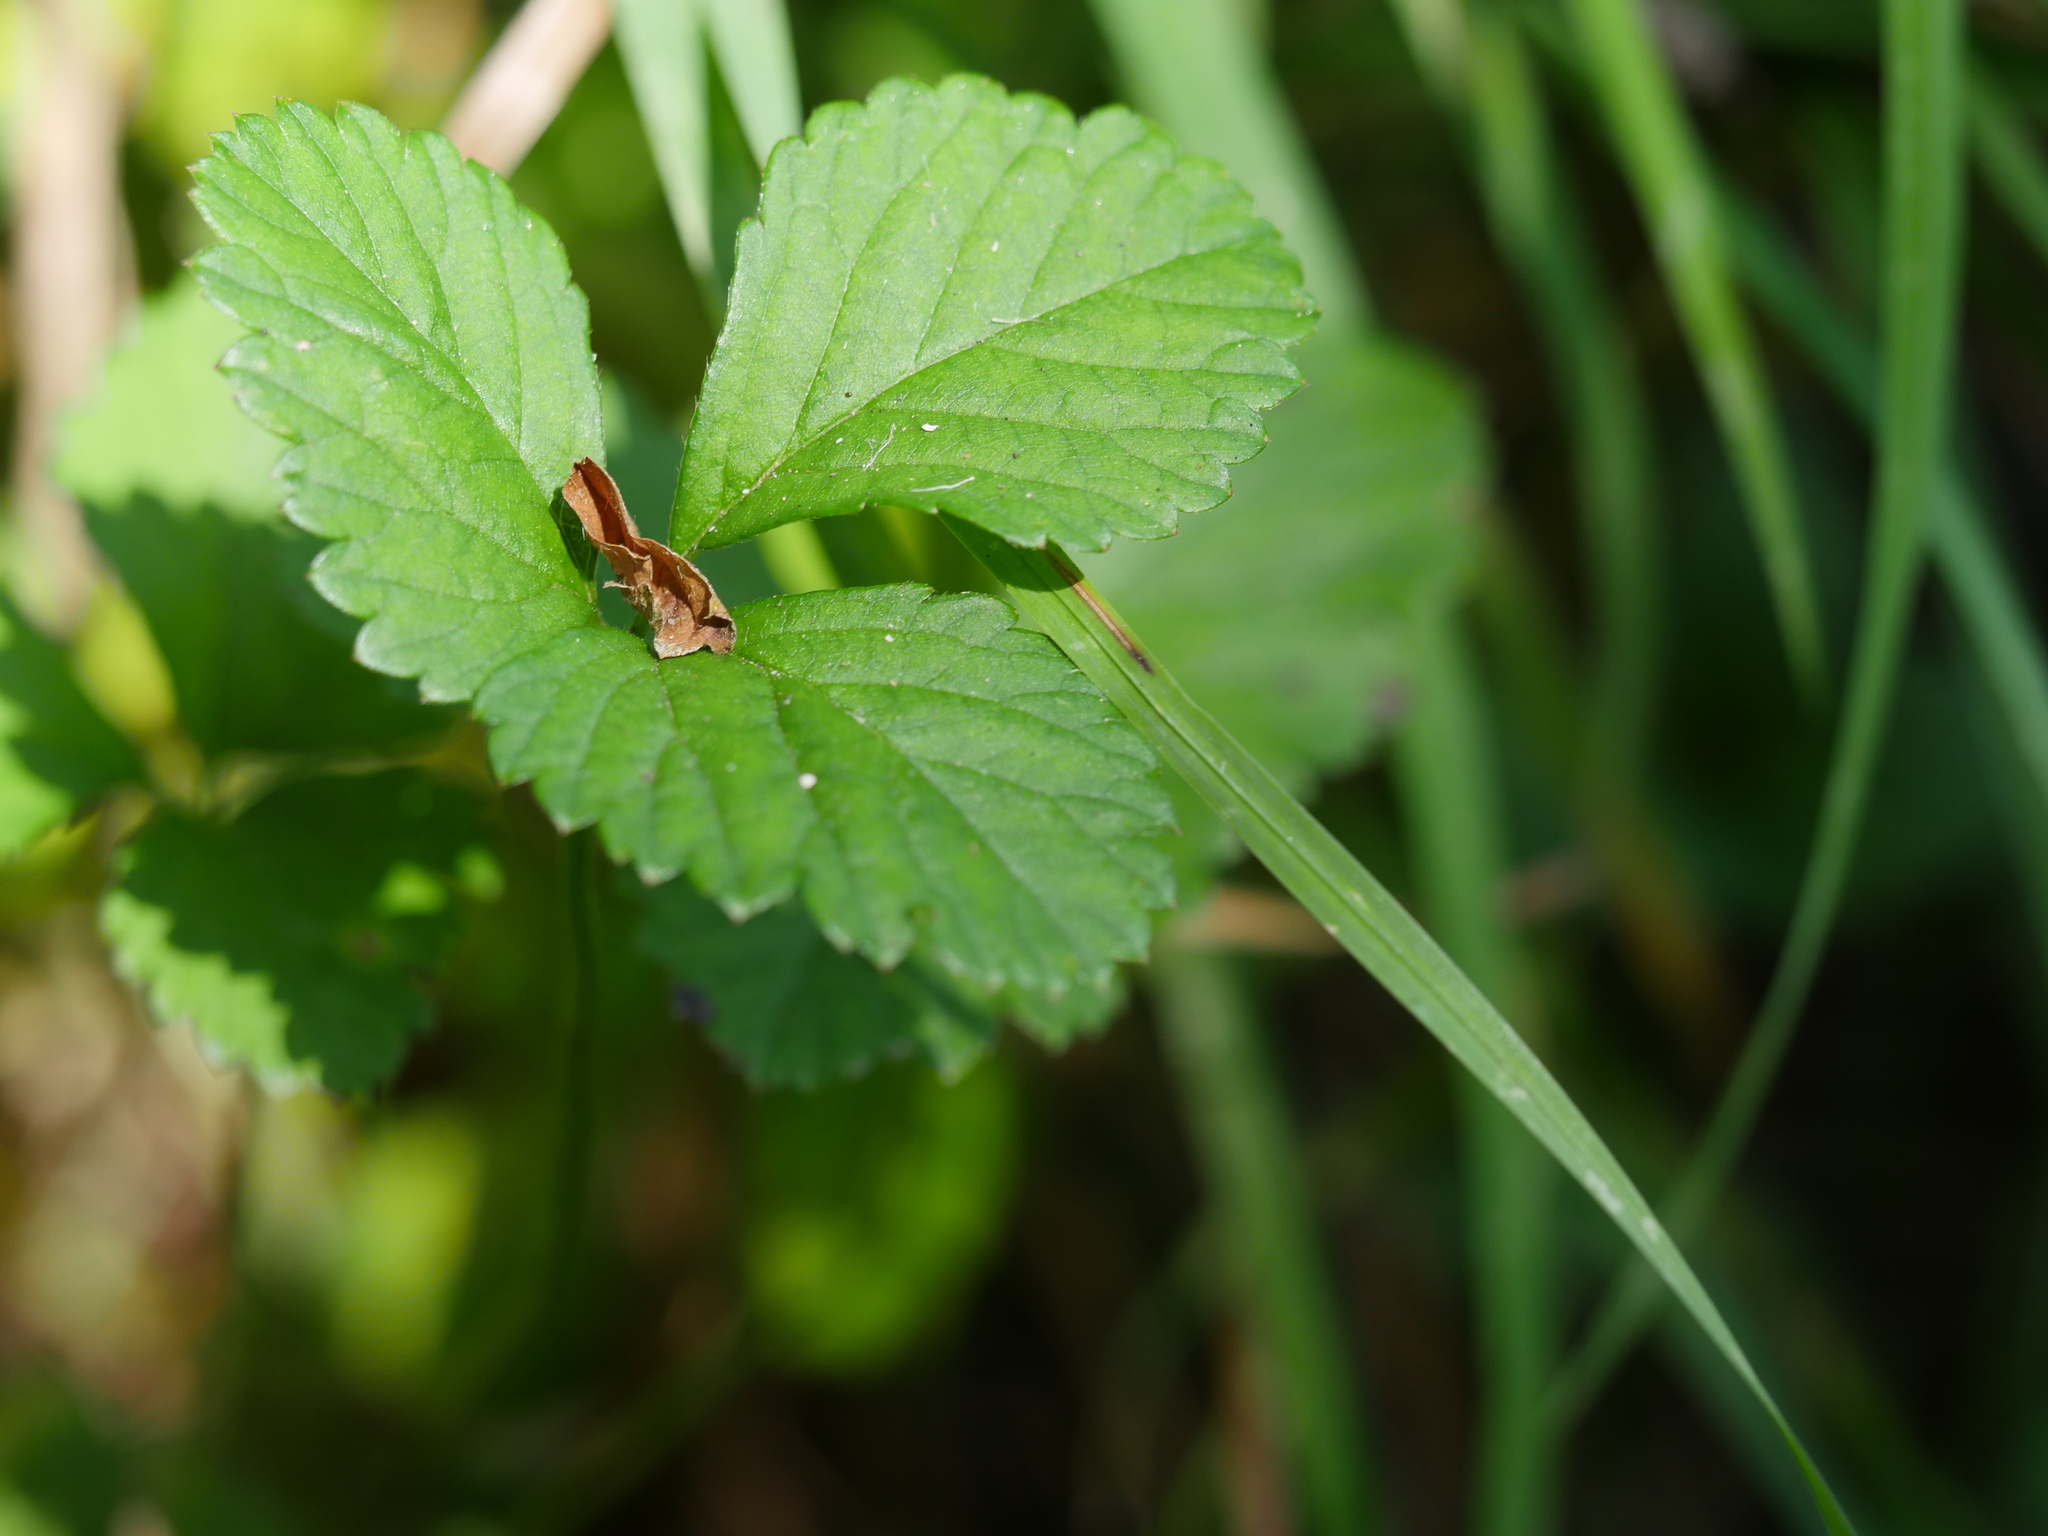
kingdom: Plantae
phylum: Tracheophyta
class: Magnoliopsida
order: Rosales
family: Rosaceae
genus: Potentilla
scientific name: Potentilla indica
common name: Yellow-flowered strawberry
